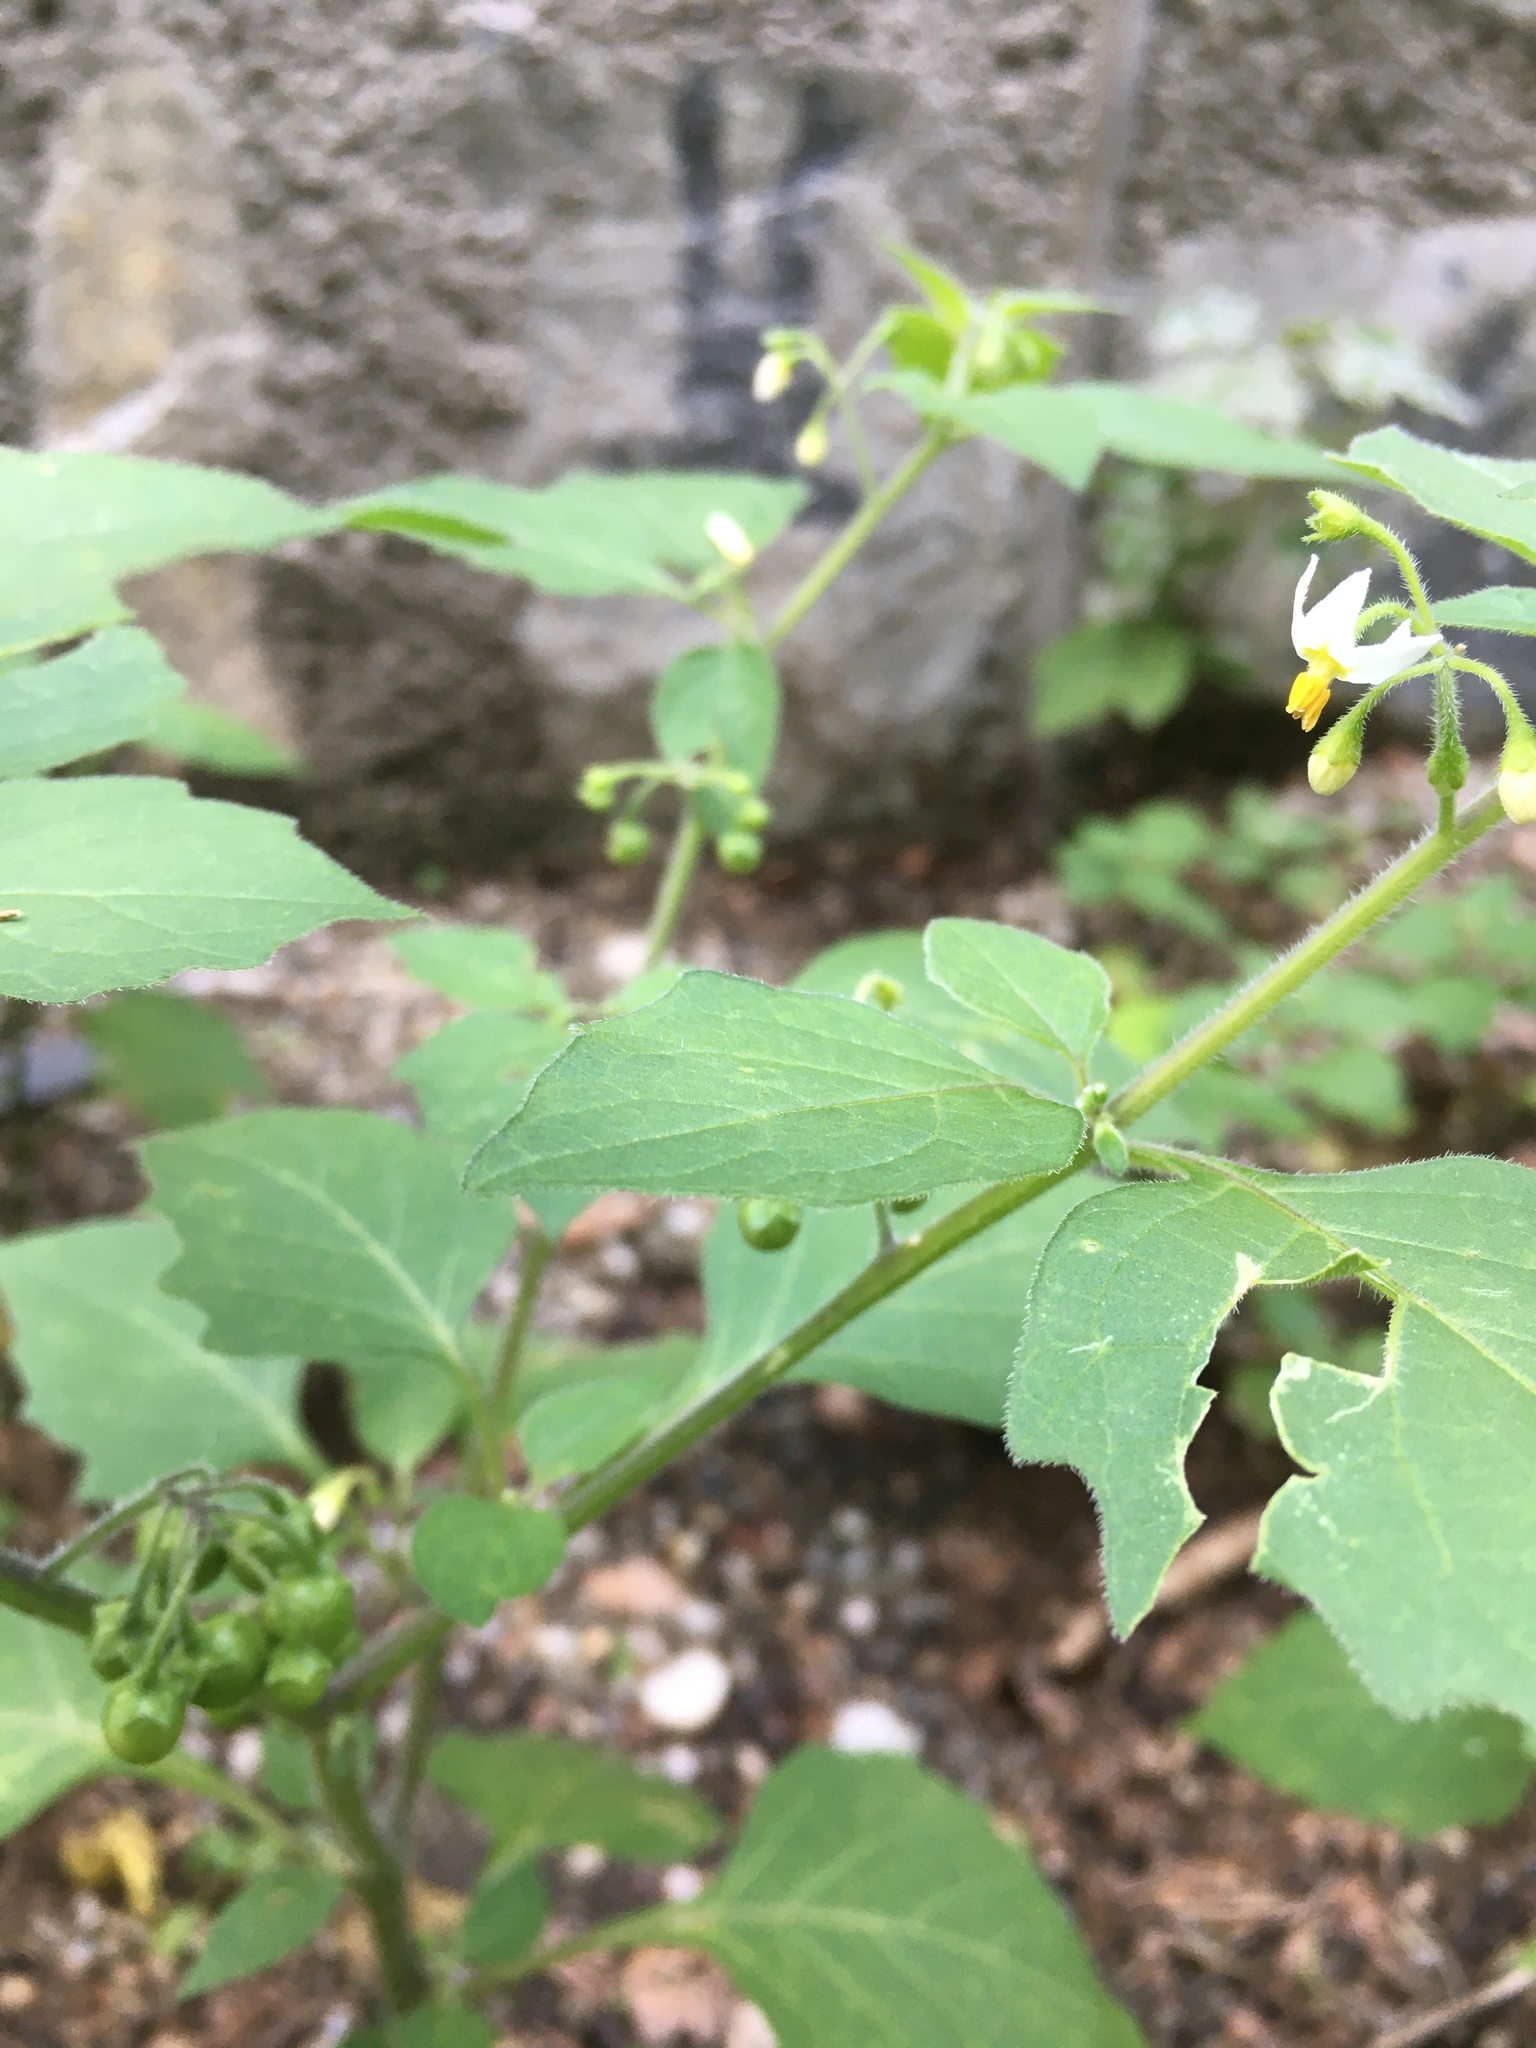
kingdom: Plantae
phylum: Tracheophyta
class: Magnoliopsida
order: Solanales
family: Solanaceae
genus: Solanum
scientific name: Solanum decipiens
